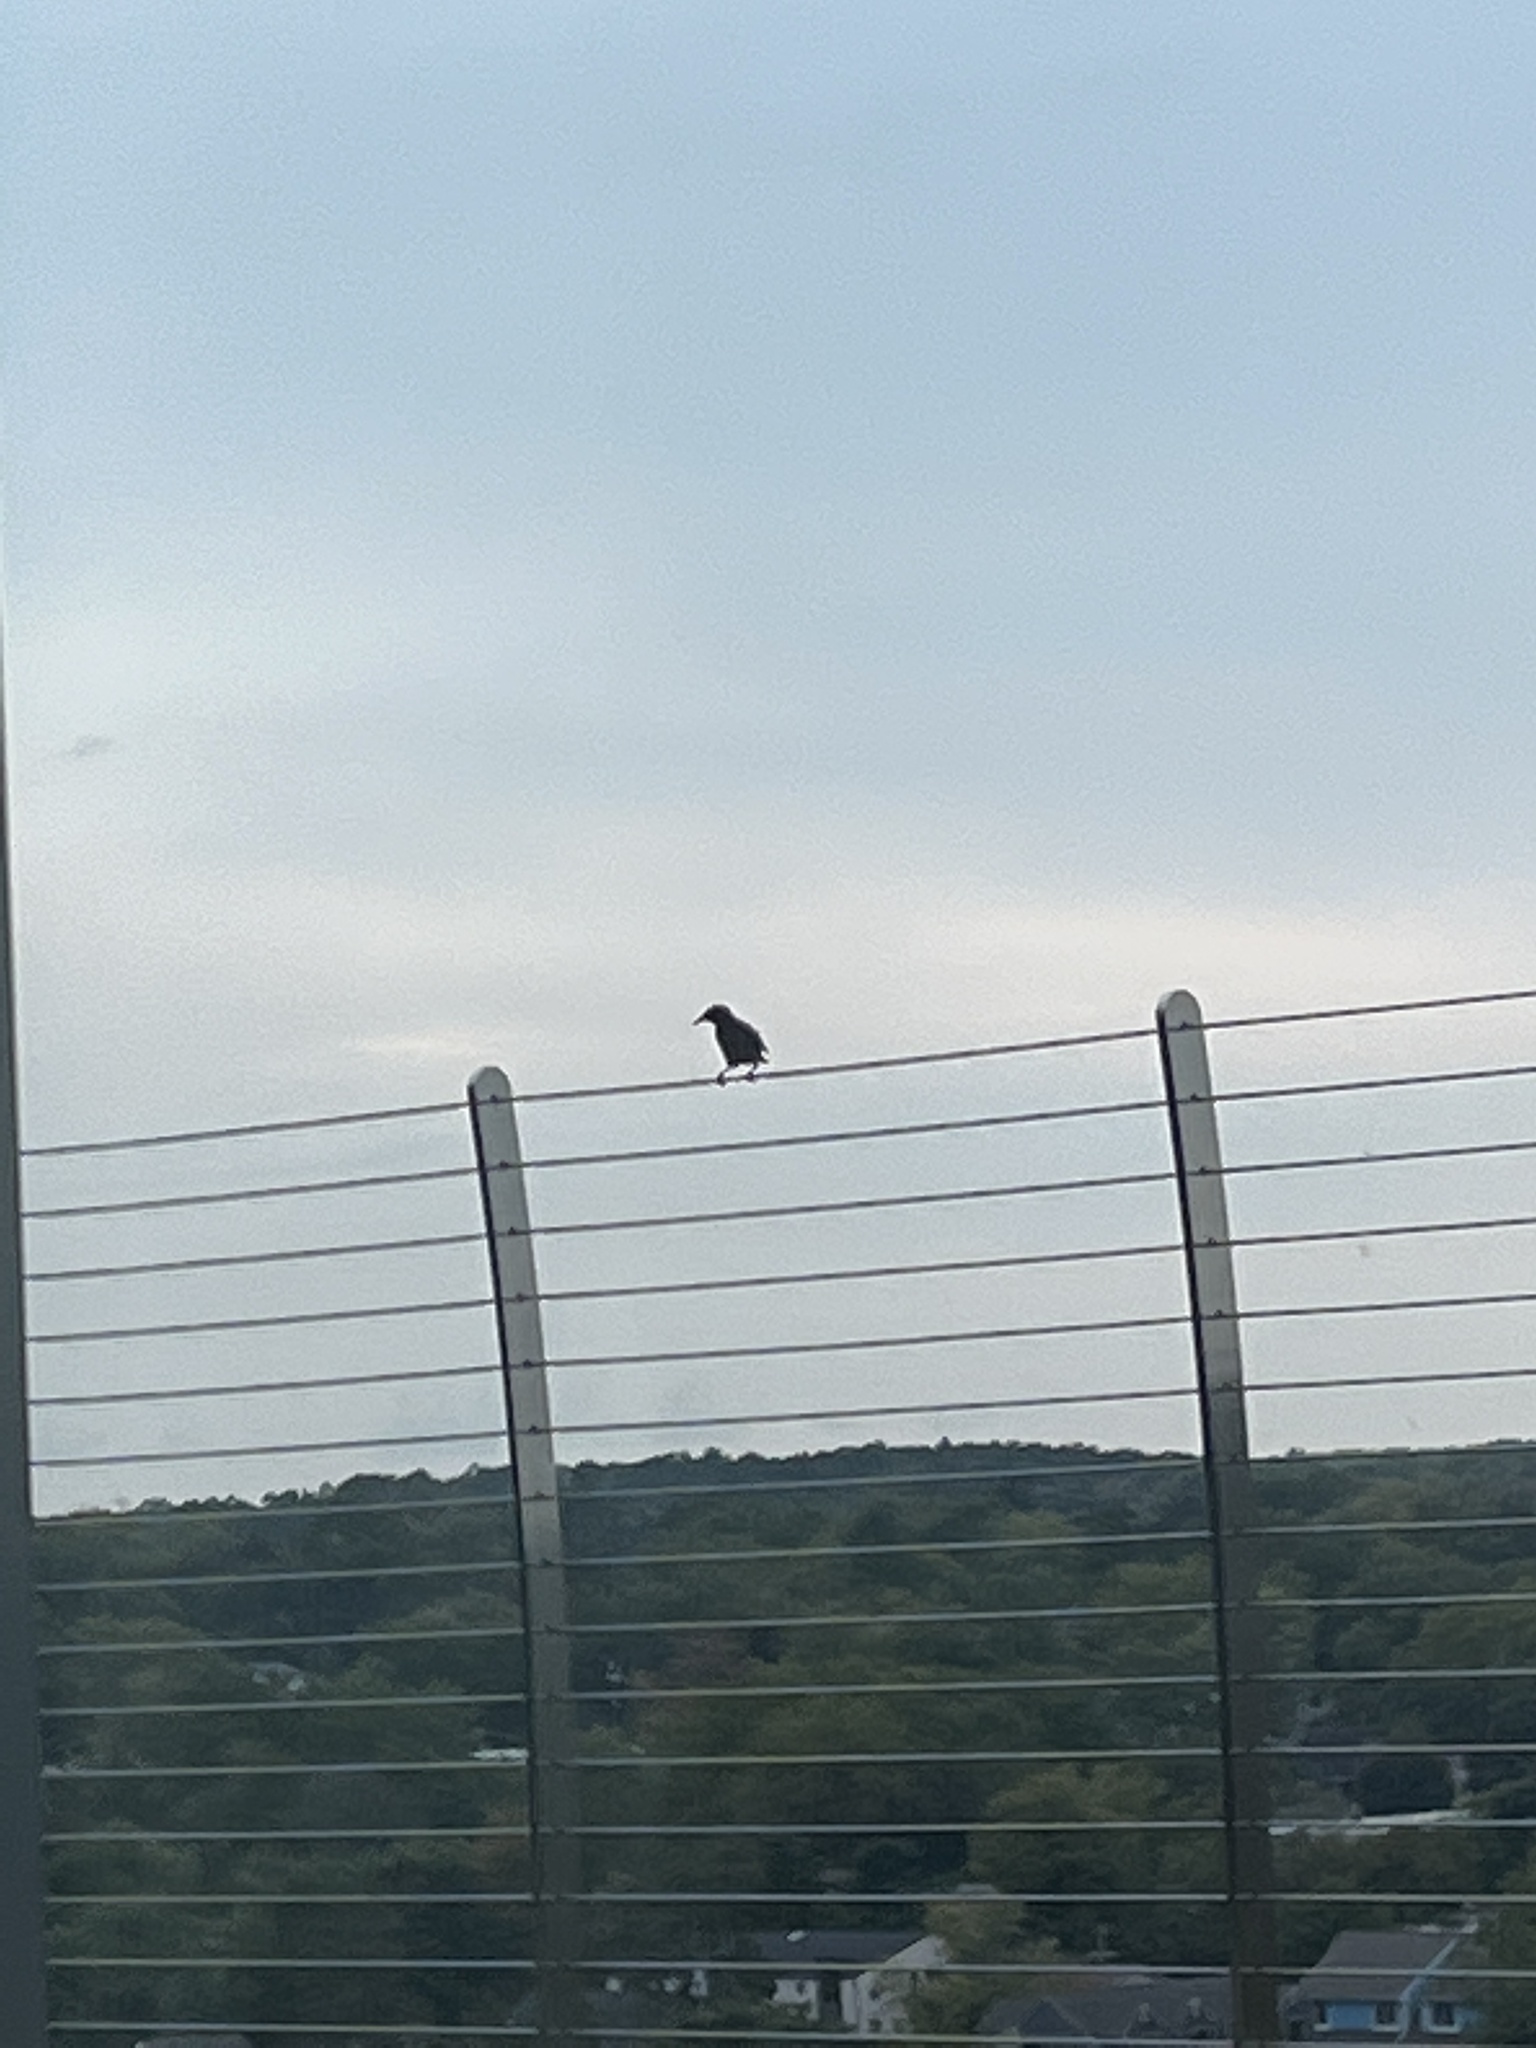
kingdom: Animalia
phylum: Chordata
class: Aves
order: Passeriformes
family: Sturnidae
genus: Sturnus
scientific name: Sturnus vulgaris
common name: Common starling
